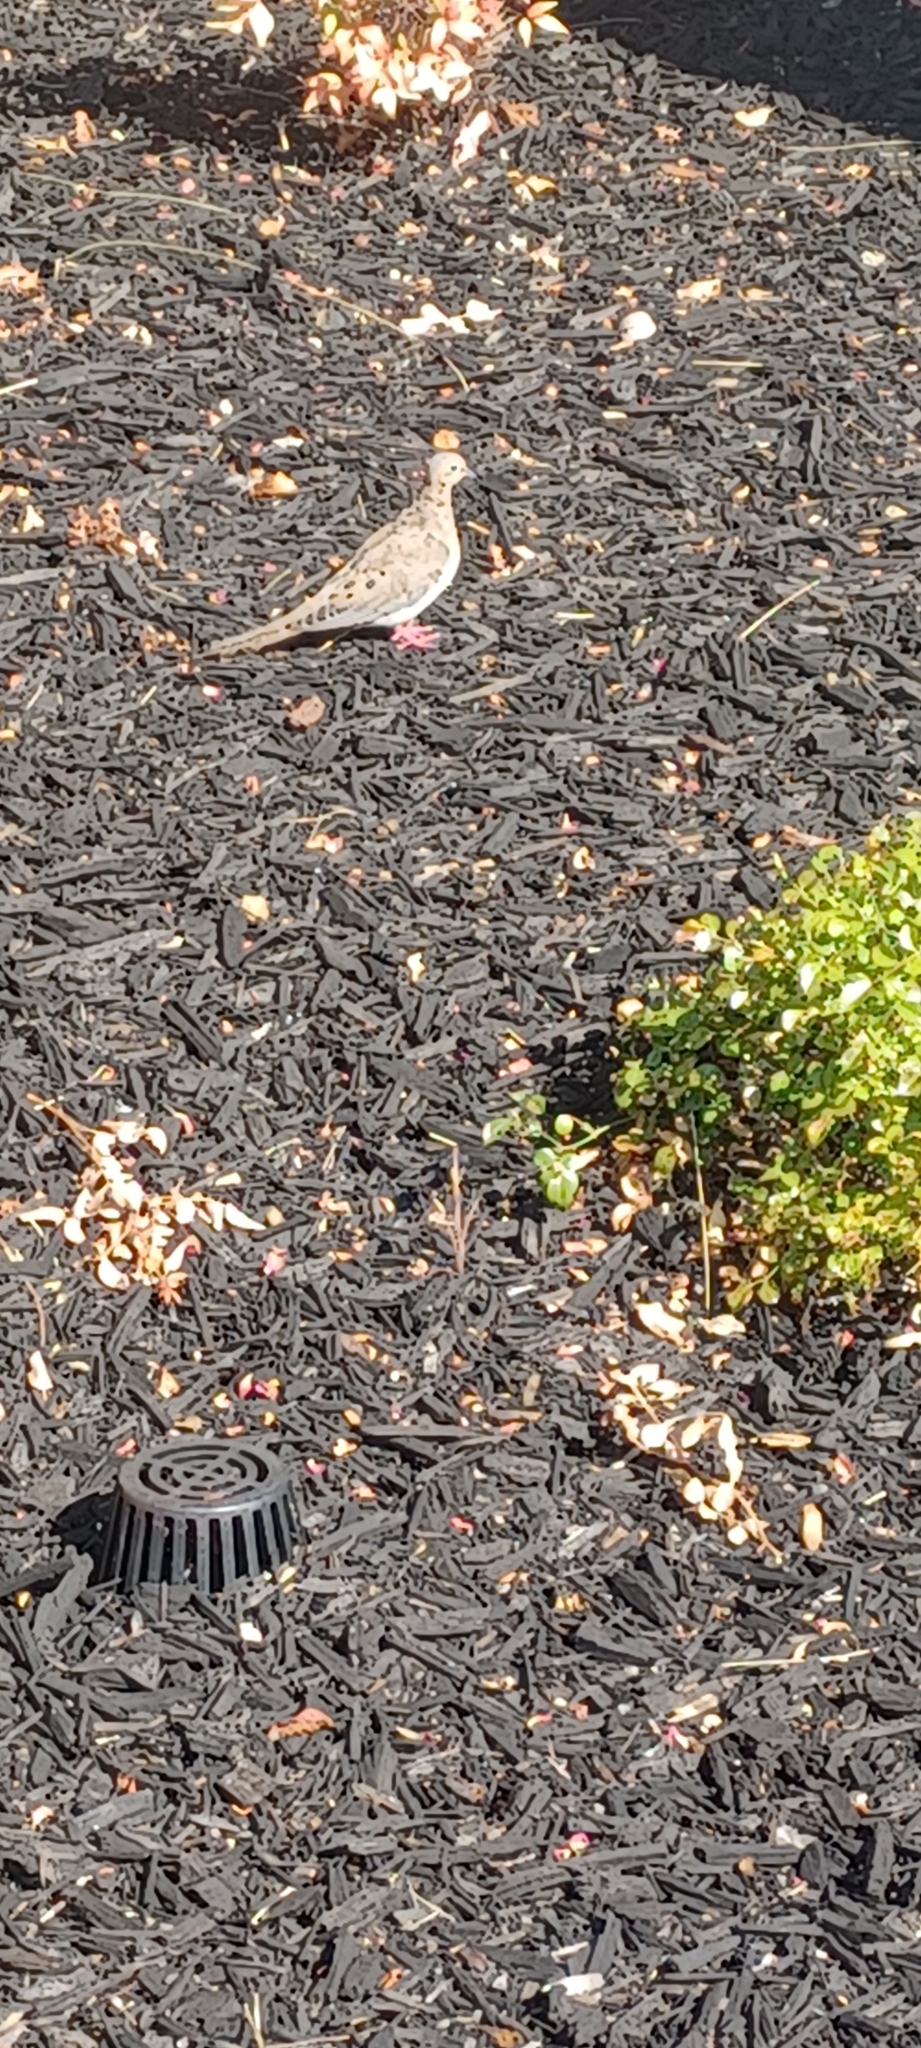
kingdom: Animalia
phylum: Chordata
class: Aves
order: Columbiformes
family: Columbidae
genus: Zenaida
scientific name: Zenaida macroura
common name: Mourning dove
